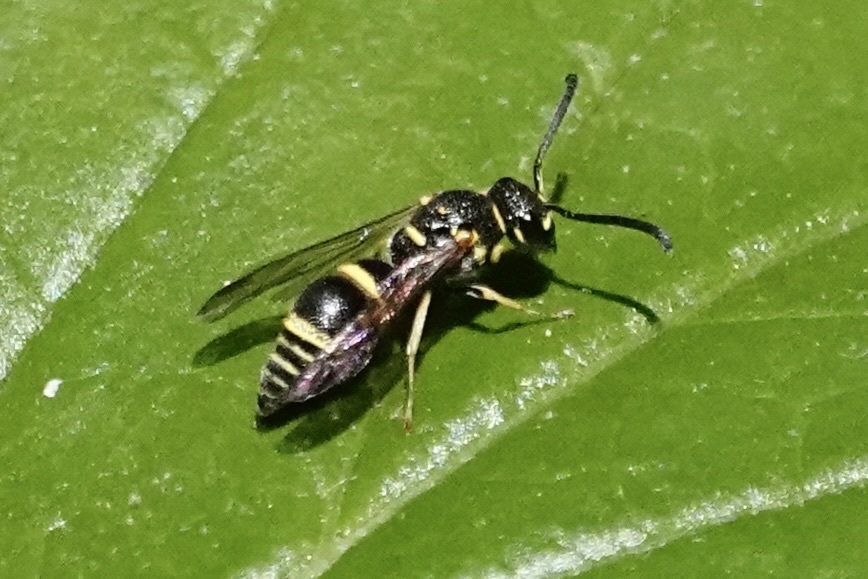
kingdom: Animalia
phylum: Arthropoda
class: Insecta
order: Hymenoptera
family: Eumenidae
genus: Euodynerus
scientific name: Euodynerus foraminatus
